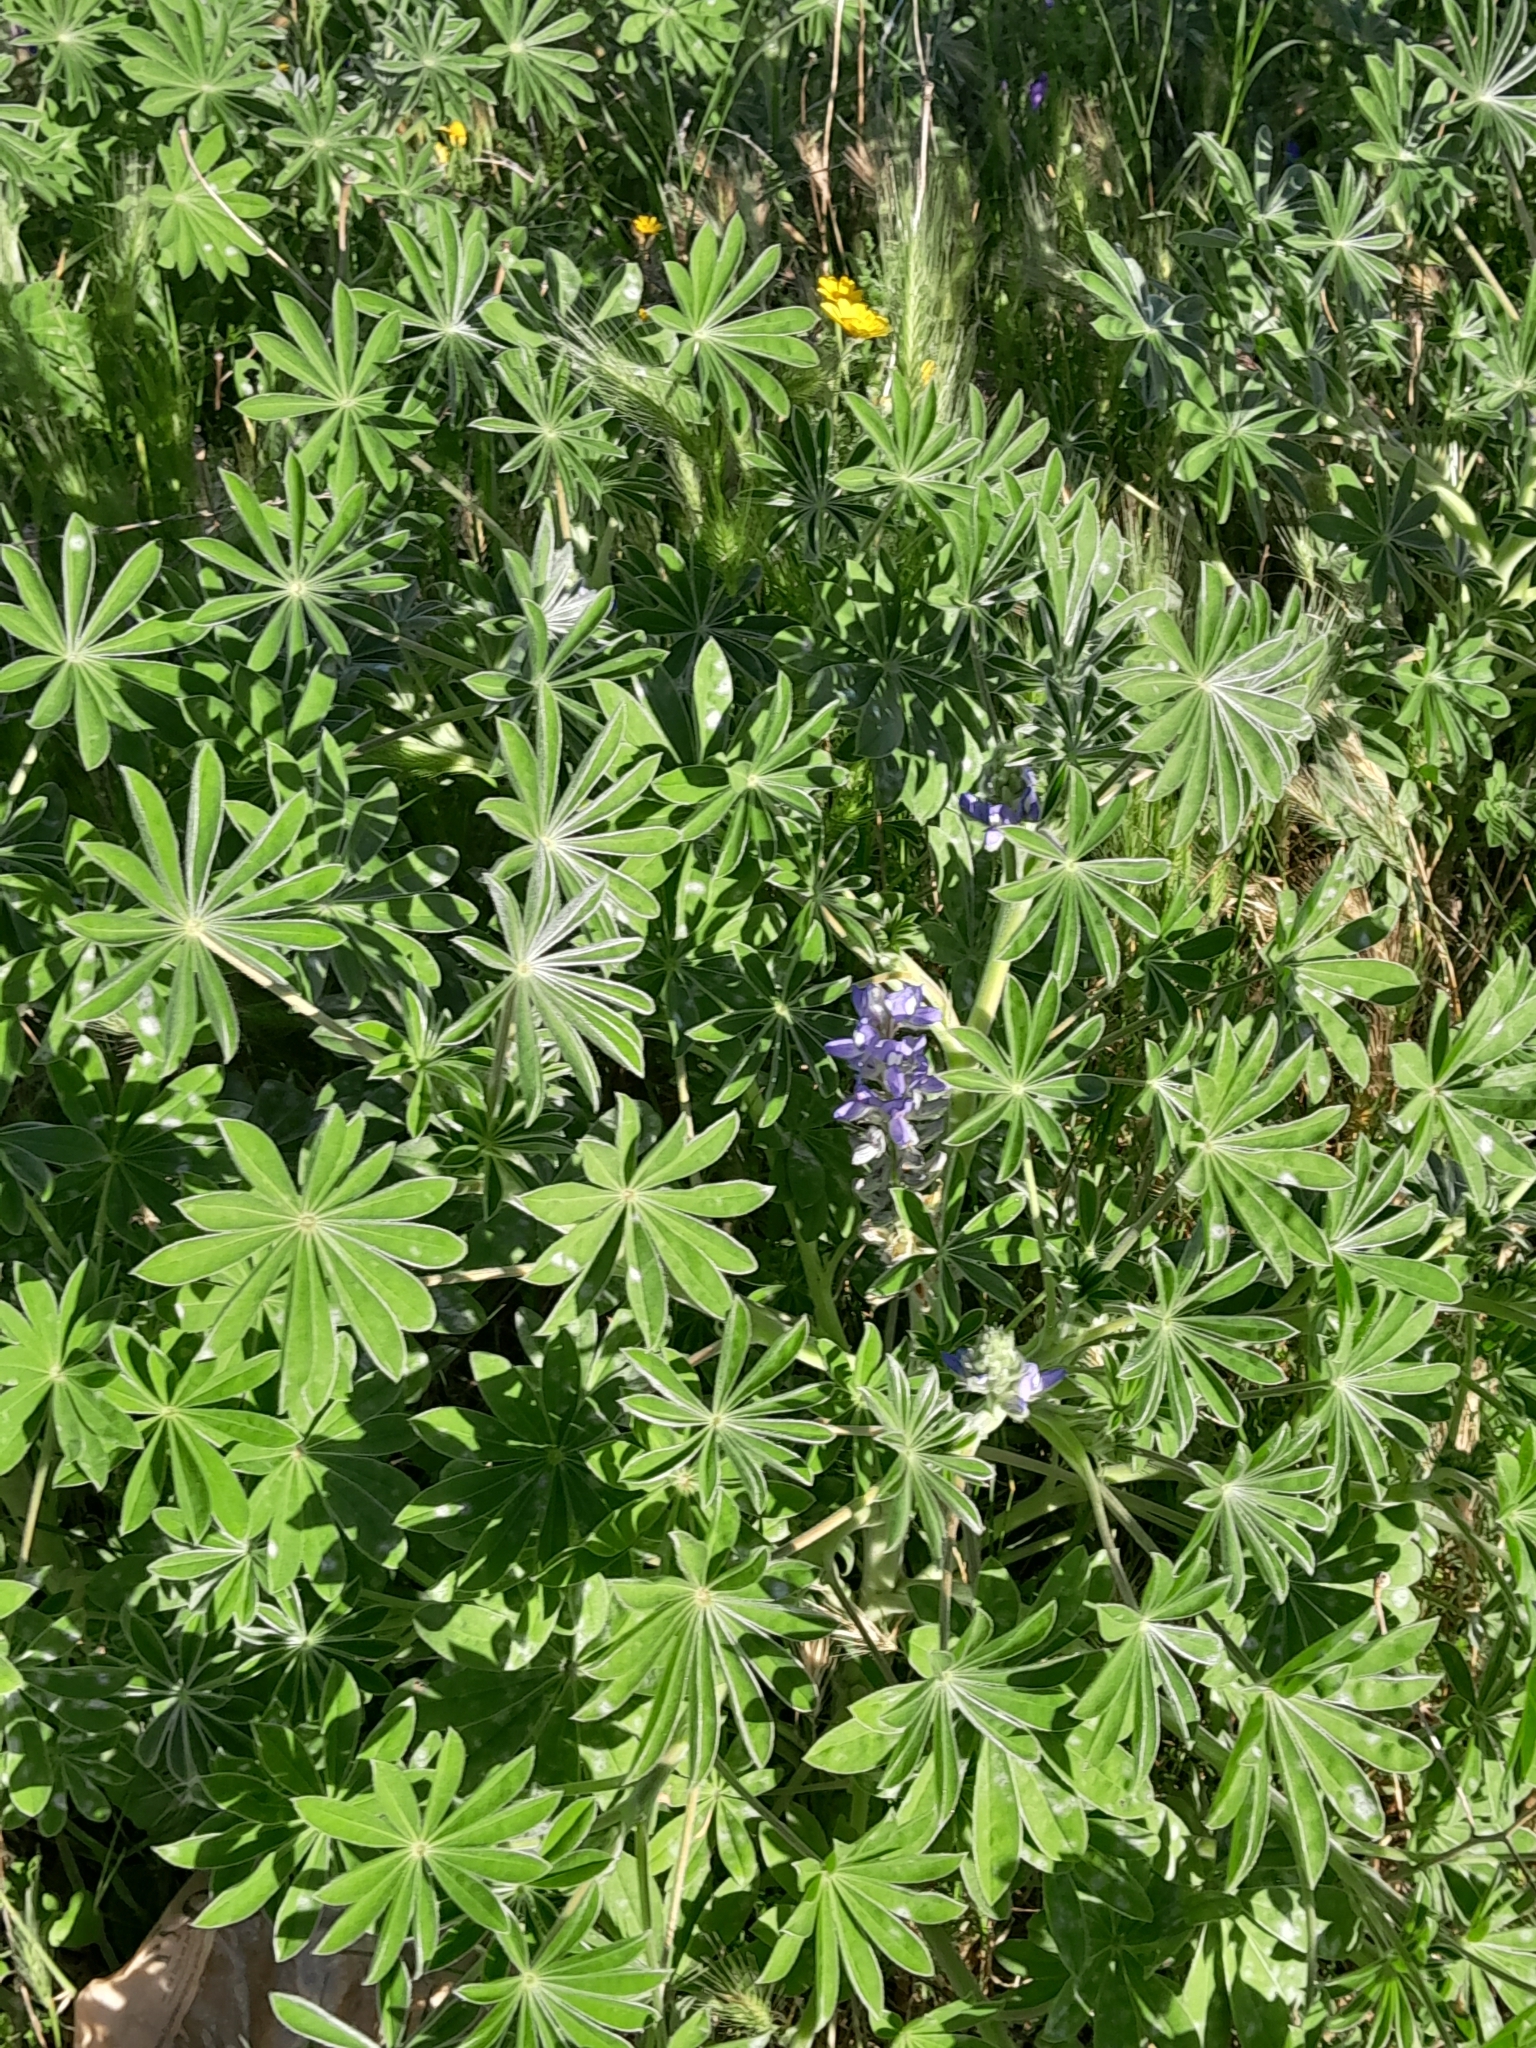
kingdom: Plantae
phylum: Tracheophyta
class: Magnoliopsida
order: Fabales
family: Fabaceae
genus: Lupinus
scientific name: Lupinus cosentinii
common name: Hairy blue lupin
